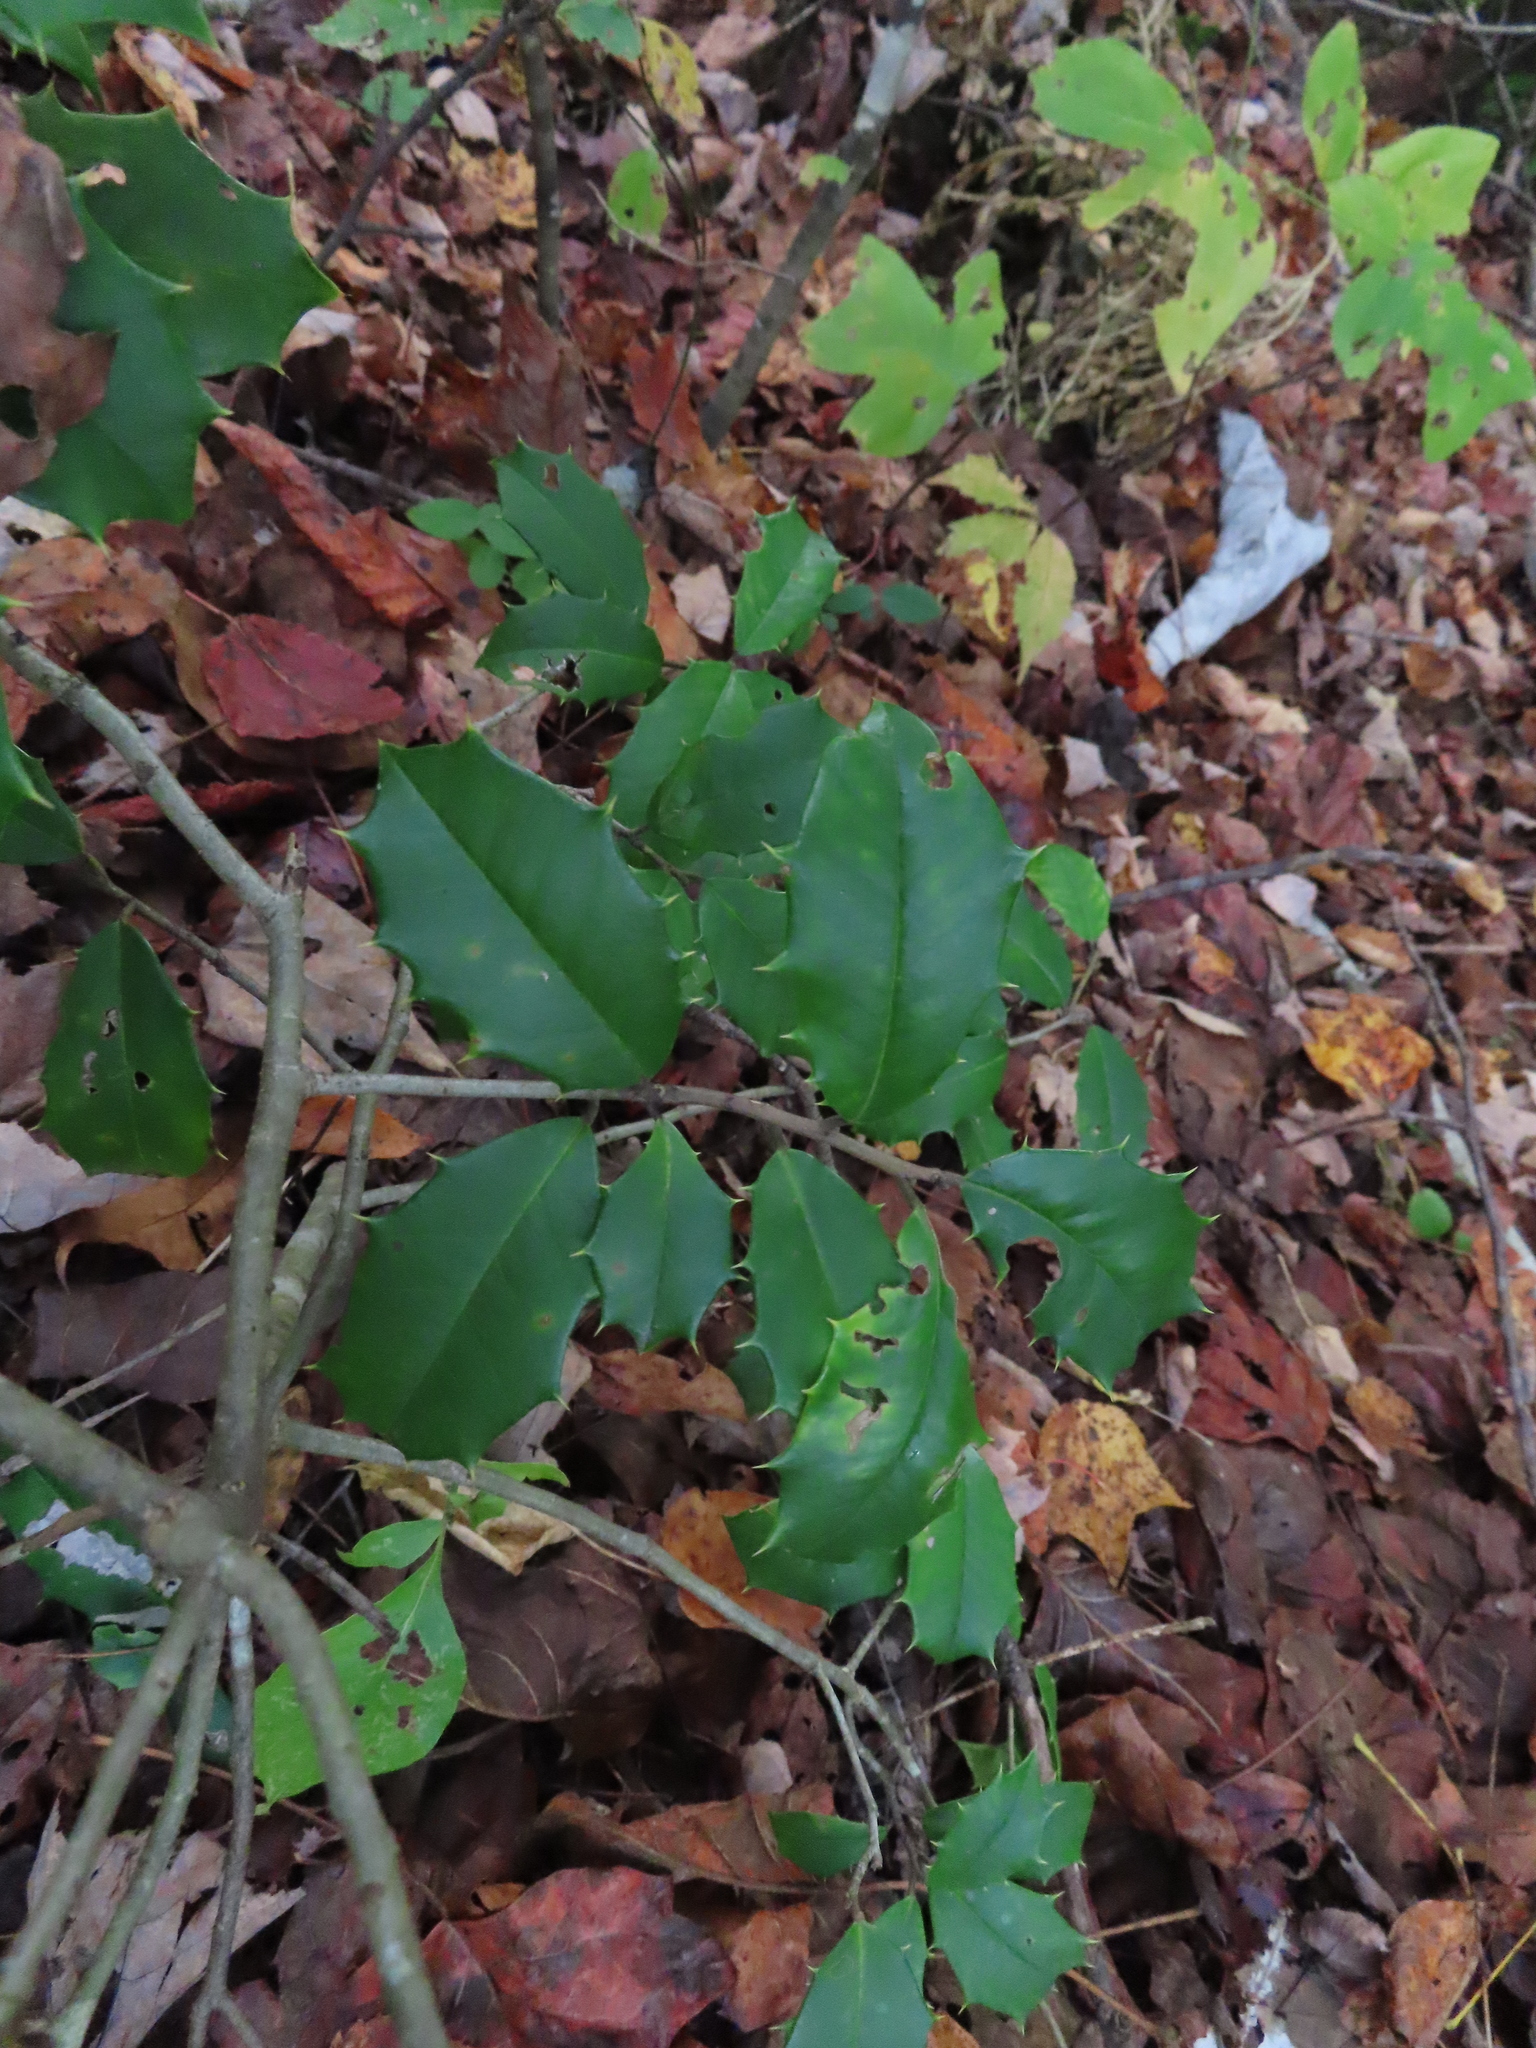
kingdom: Plantae
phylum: Tracheophyta
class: Magnoliopsida
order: Aquifoliales
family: Aquifoliaceae
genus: Ilex
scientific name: Ilex opaca
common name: American holly
